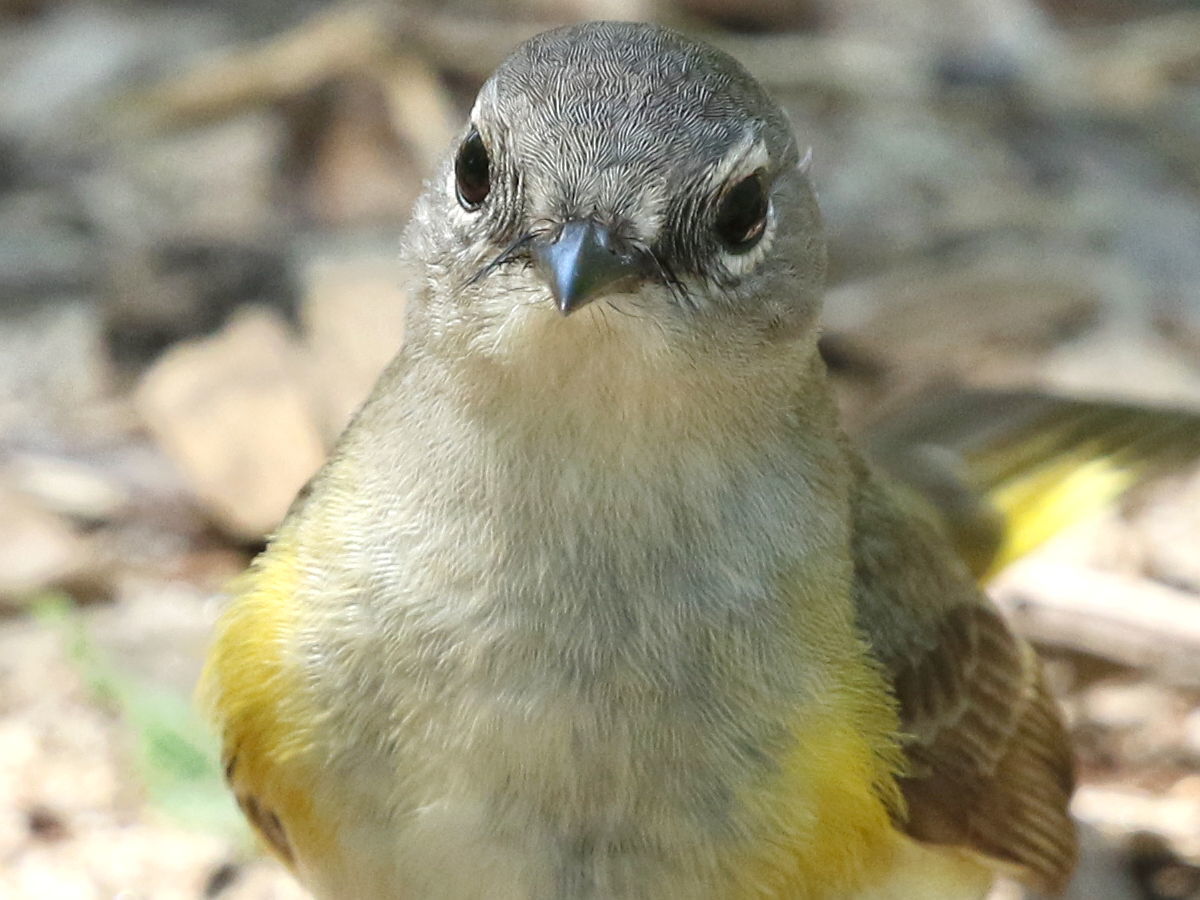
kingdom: Animalia
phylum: Chordata
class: Aves
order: Passeriformes
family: Parulidae
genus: Setophaga
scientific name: Setophaga ruticilla
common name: American redstart
